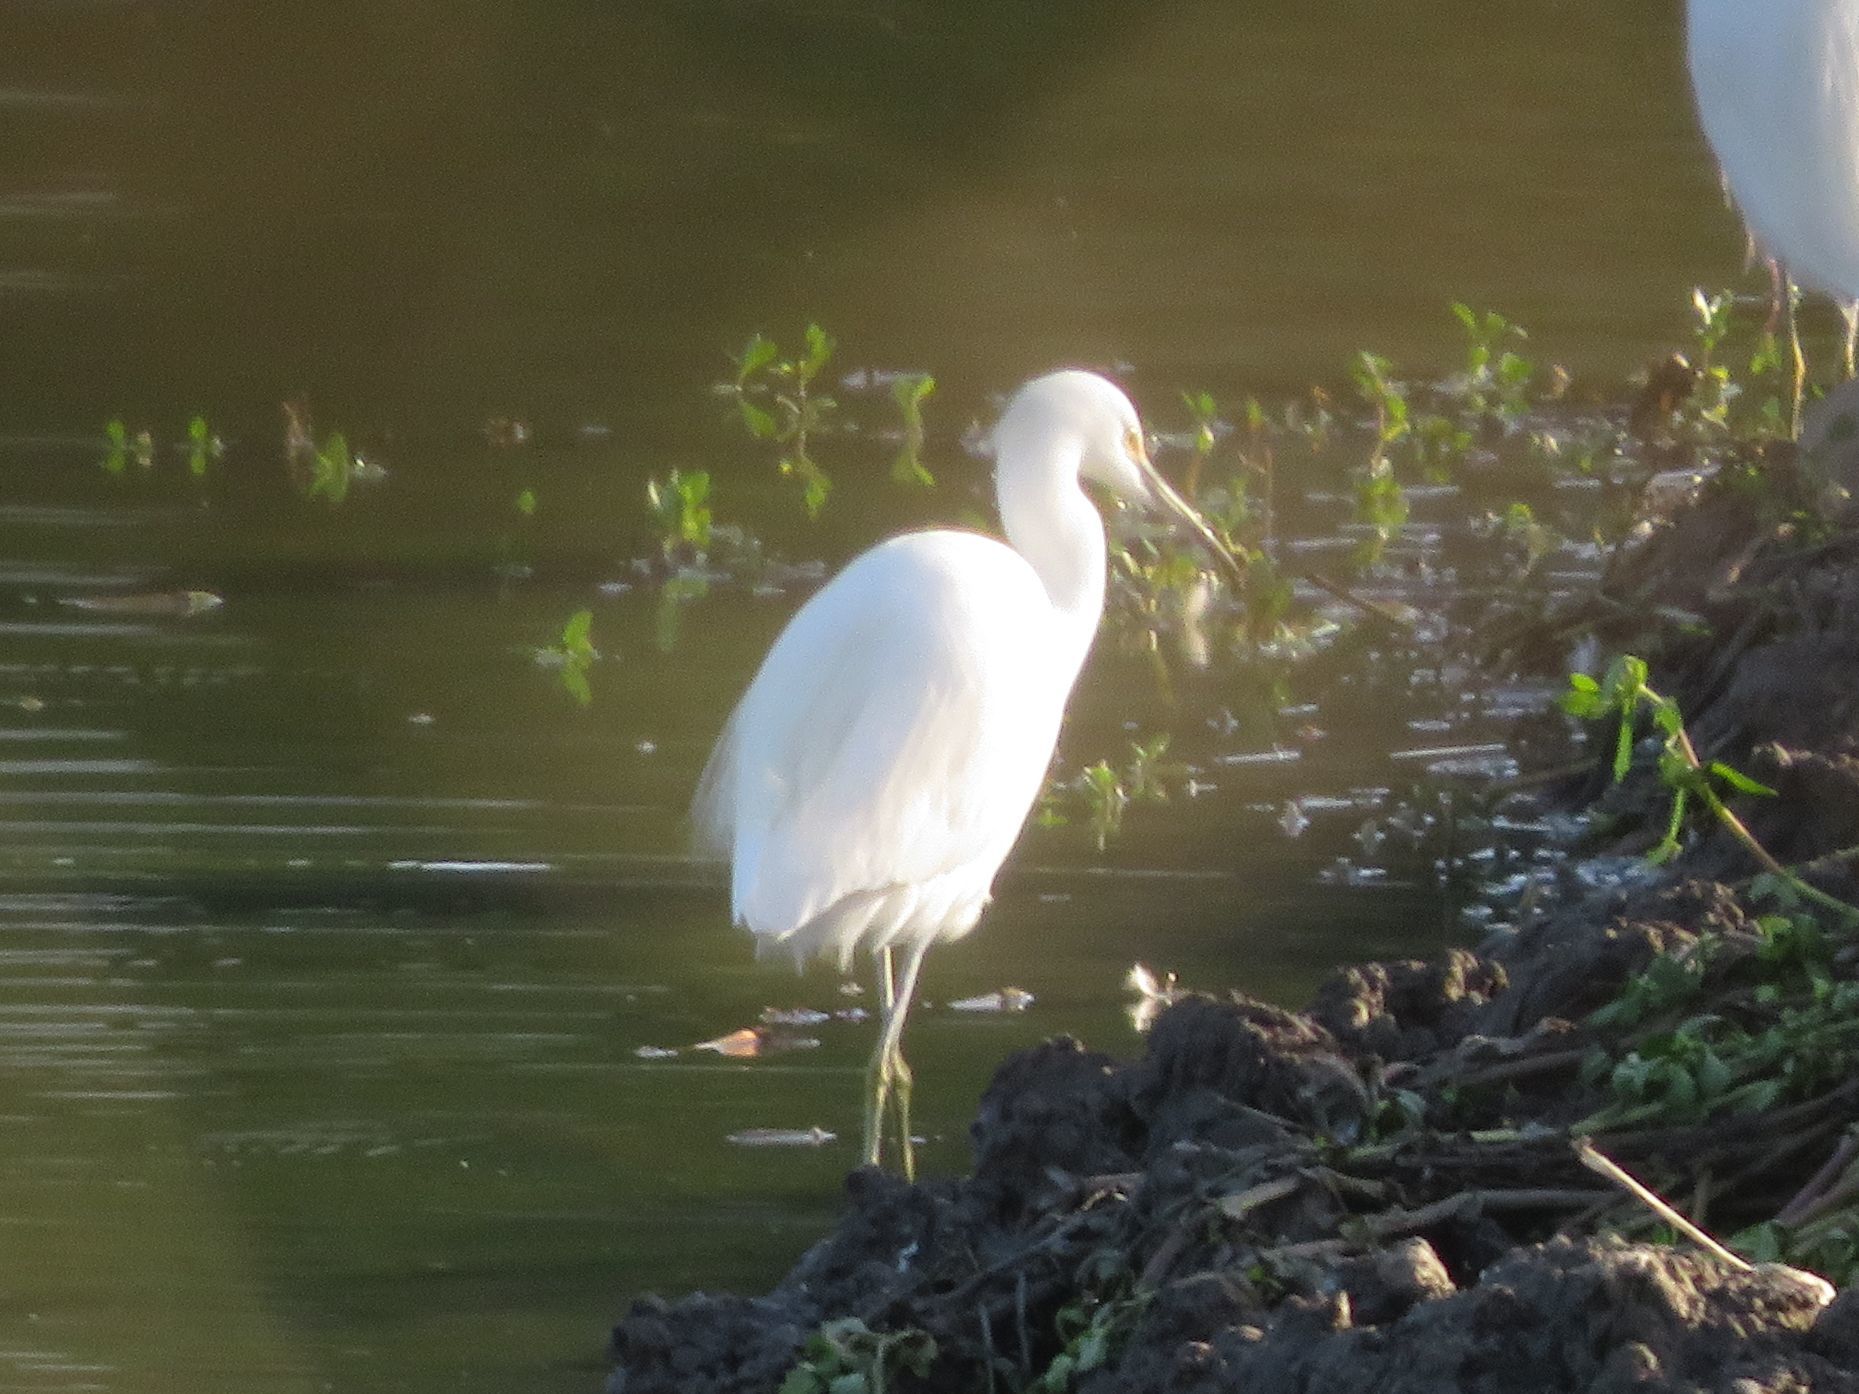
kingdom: Animalia
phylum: Chordata
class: Aves
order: Pelecaniformes
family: Ardeidae
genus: Egretta
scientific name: Egretta thula
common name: Snowy egret
